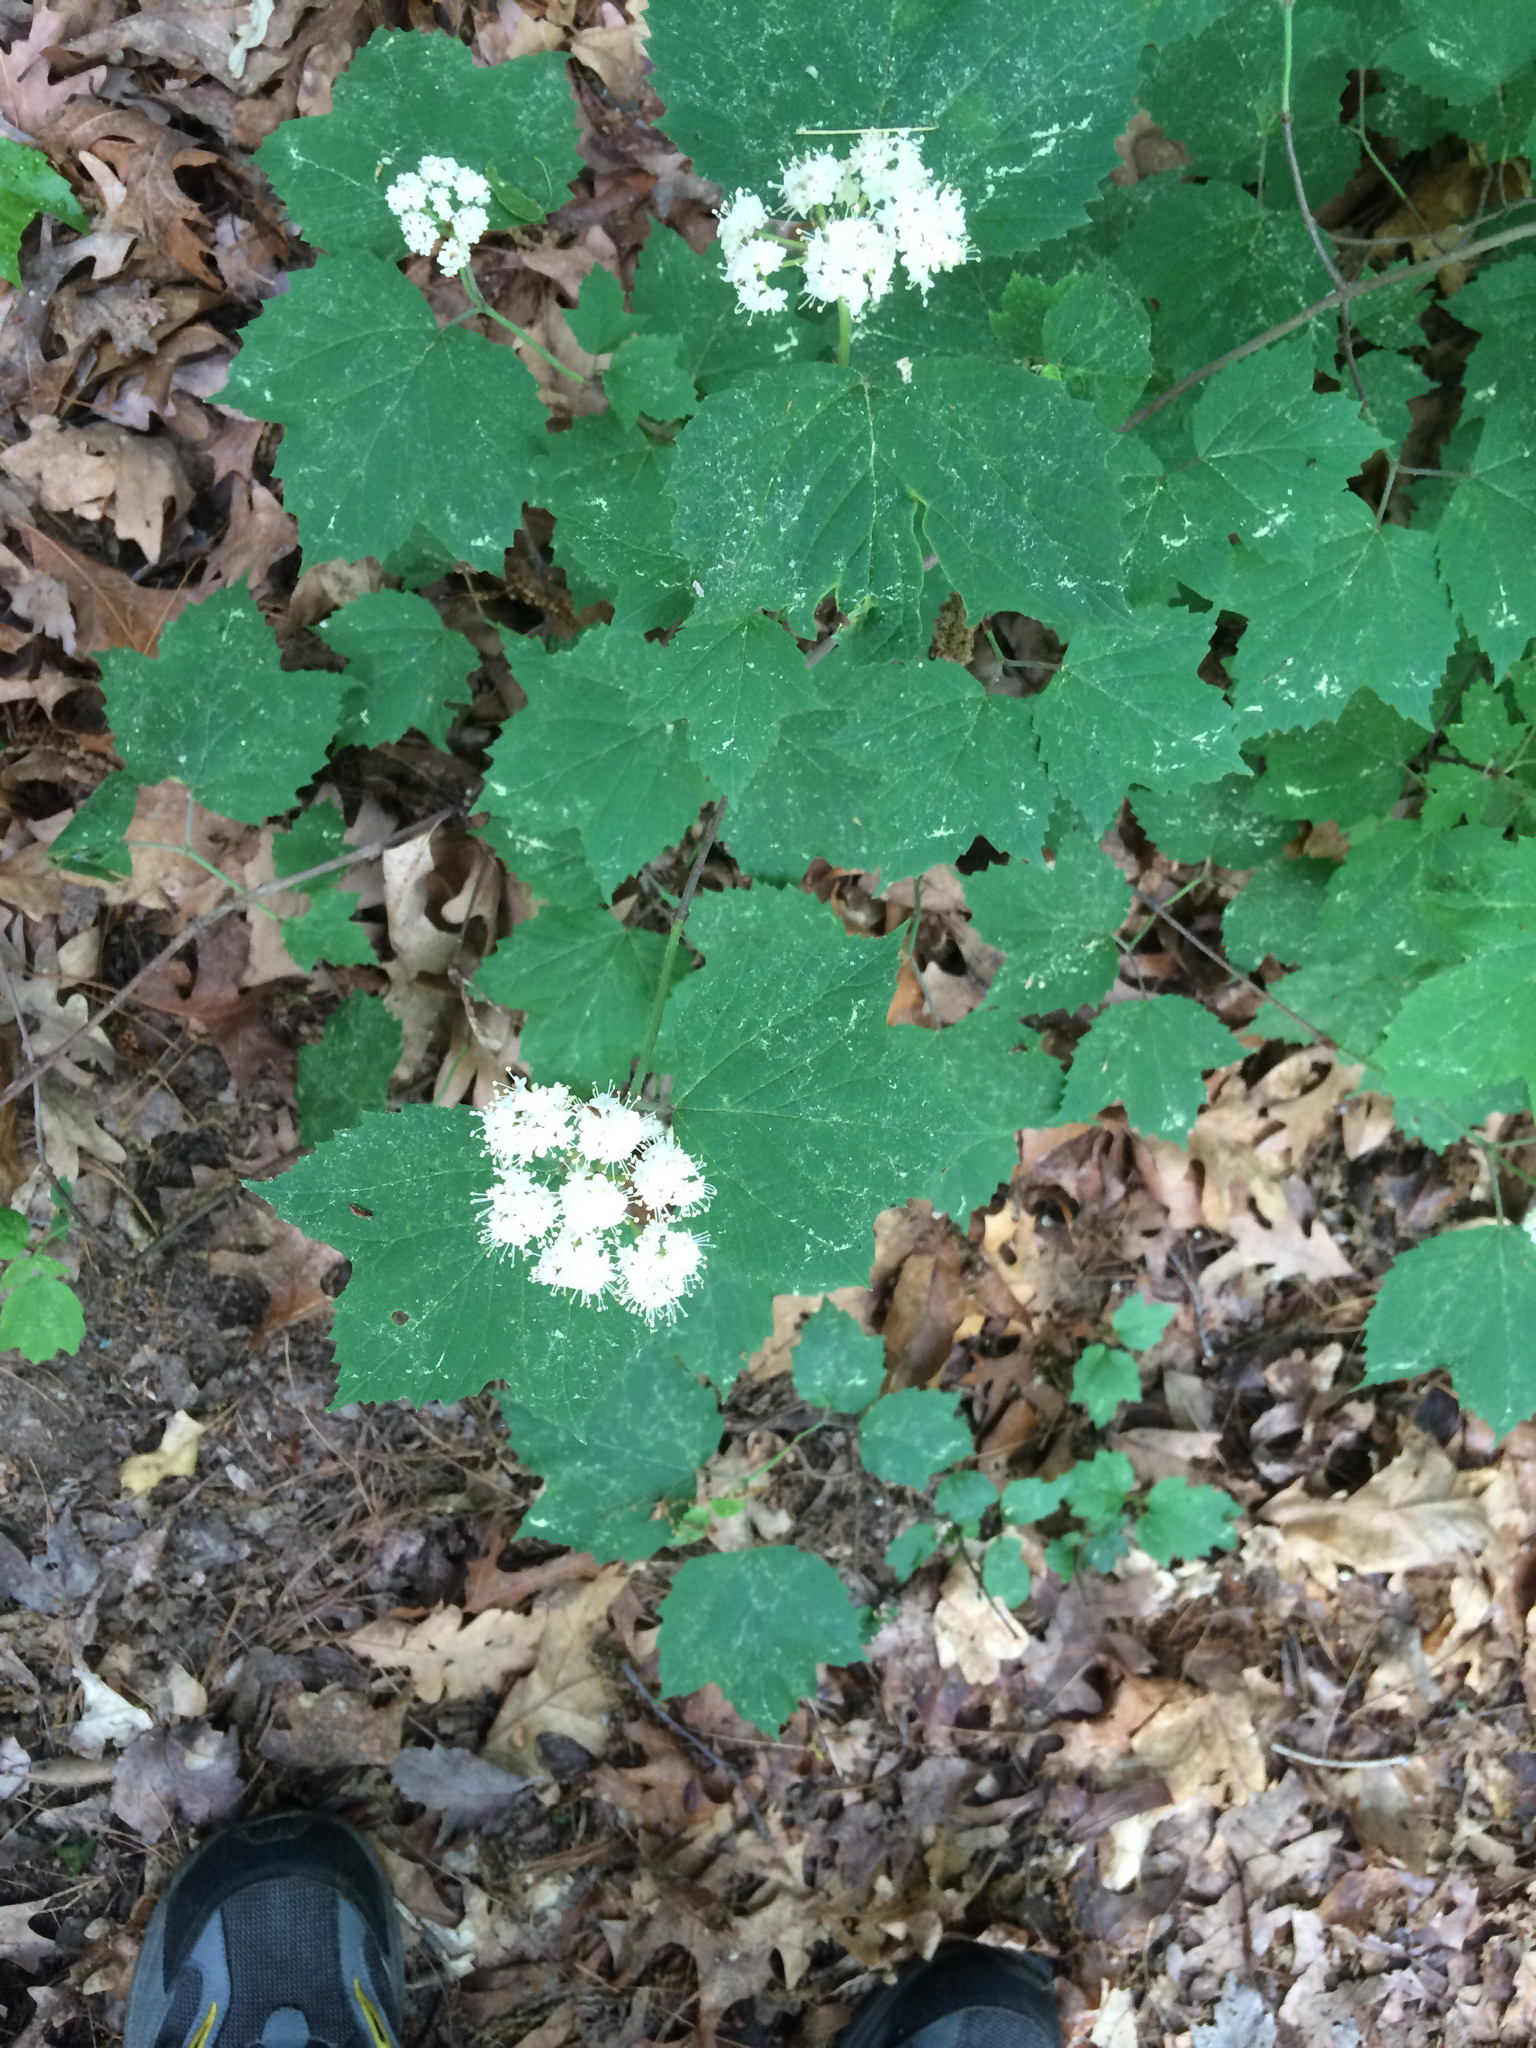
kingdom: Plantae
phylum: Tracheophyta
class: Magnoliopsida
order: Dipsacales
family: Viburnaceae
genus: Viburnum
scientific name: Viburnum acerifolium
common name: Dockmackie
